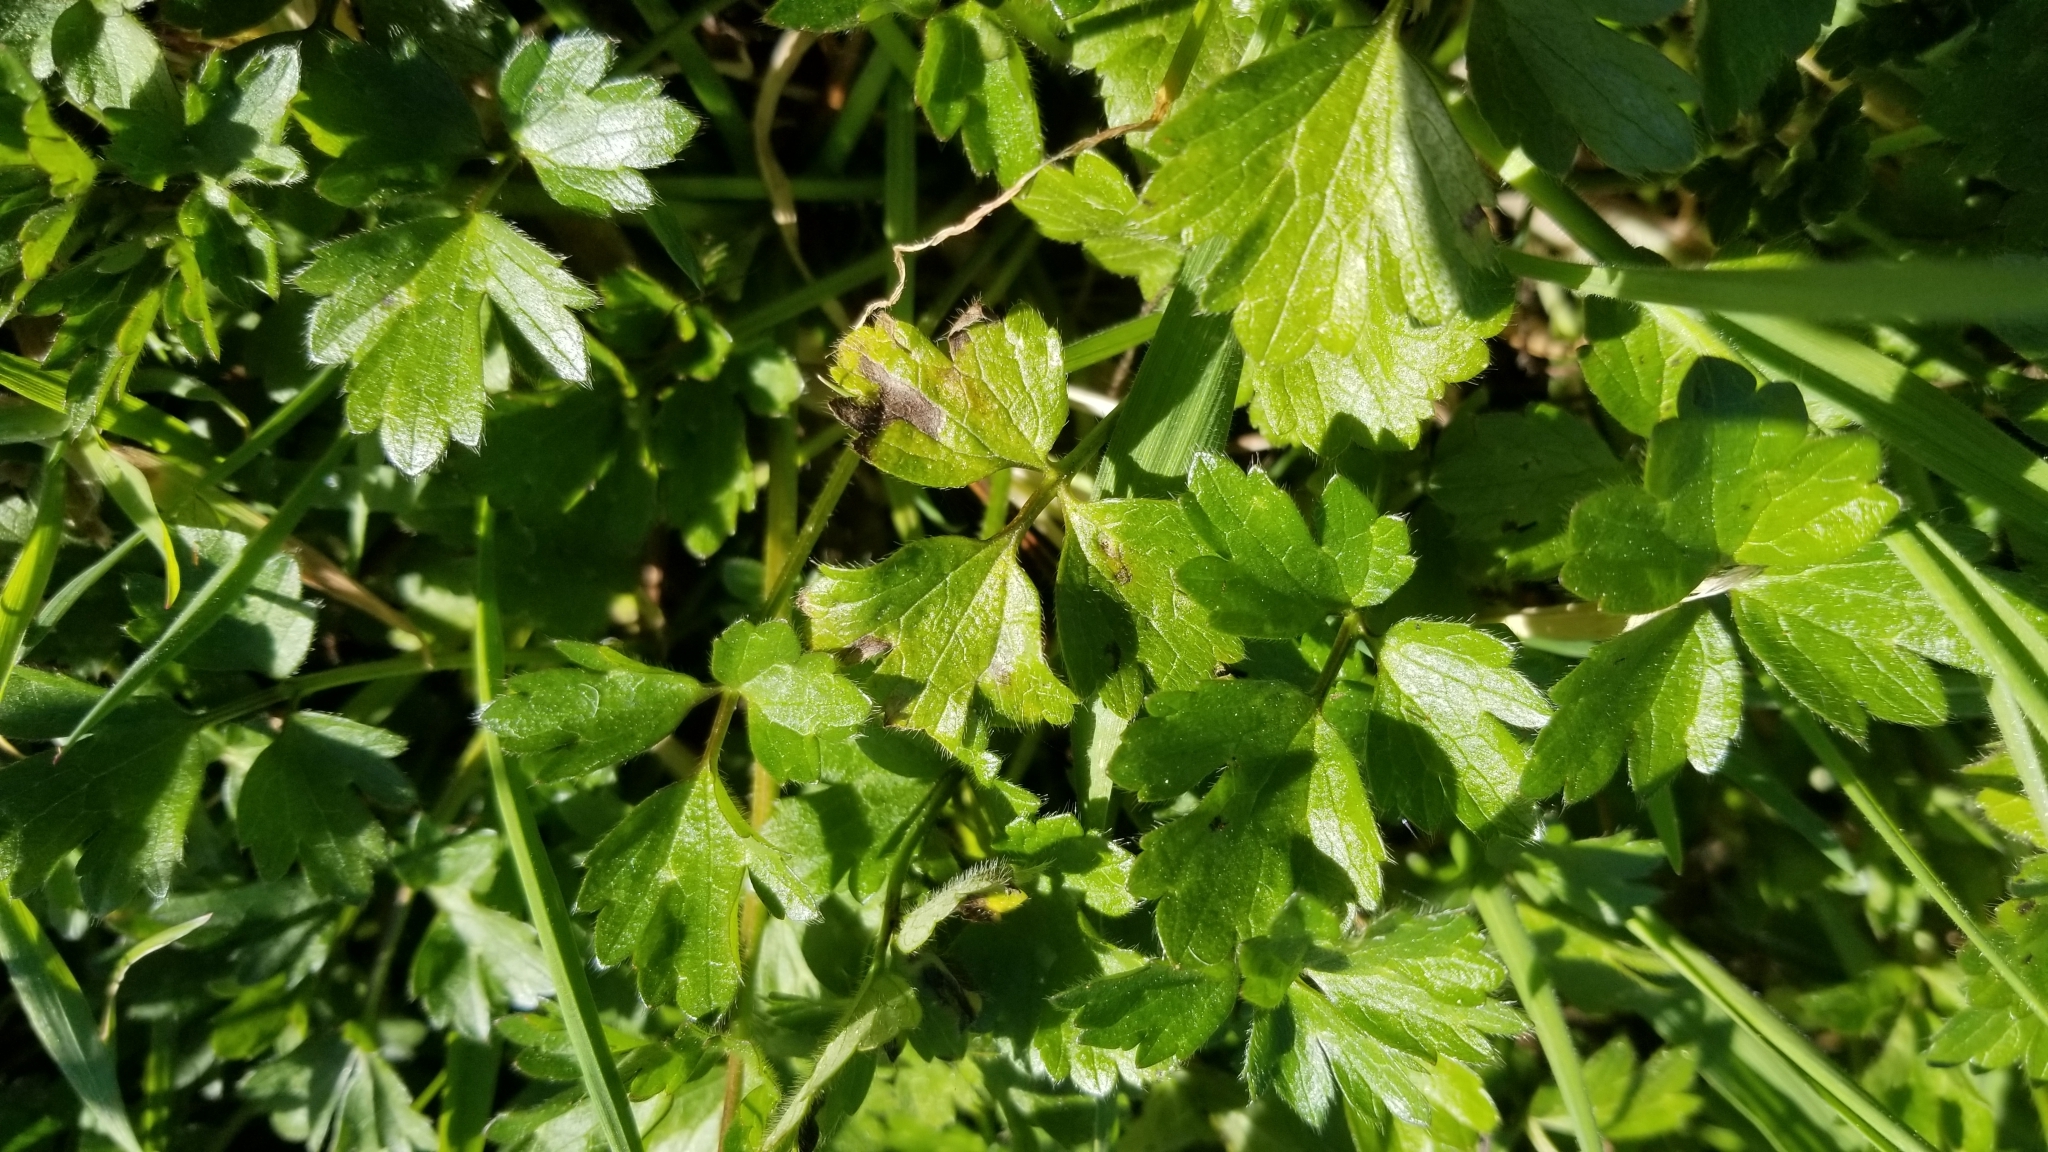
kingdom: Plantae
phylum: Tracheophyta
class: Magnoliopsida
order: Ranunculales
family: Ranunculaceae
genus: Ranunculus
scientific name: Ranunculus repens
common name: Creeping buttercup
